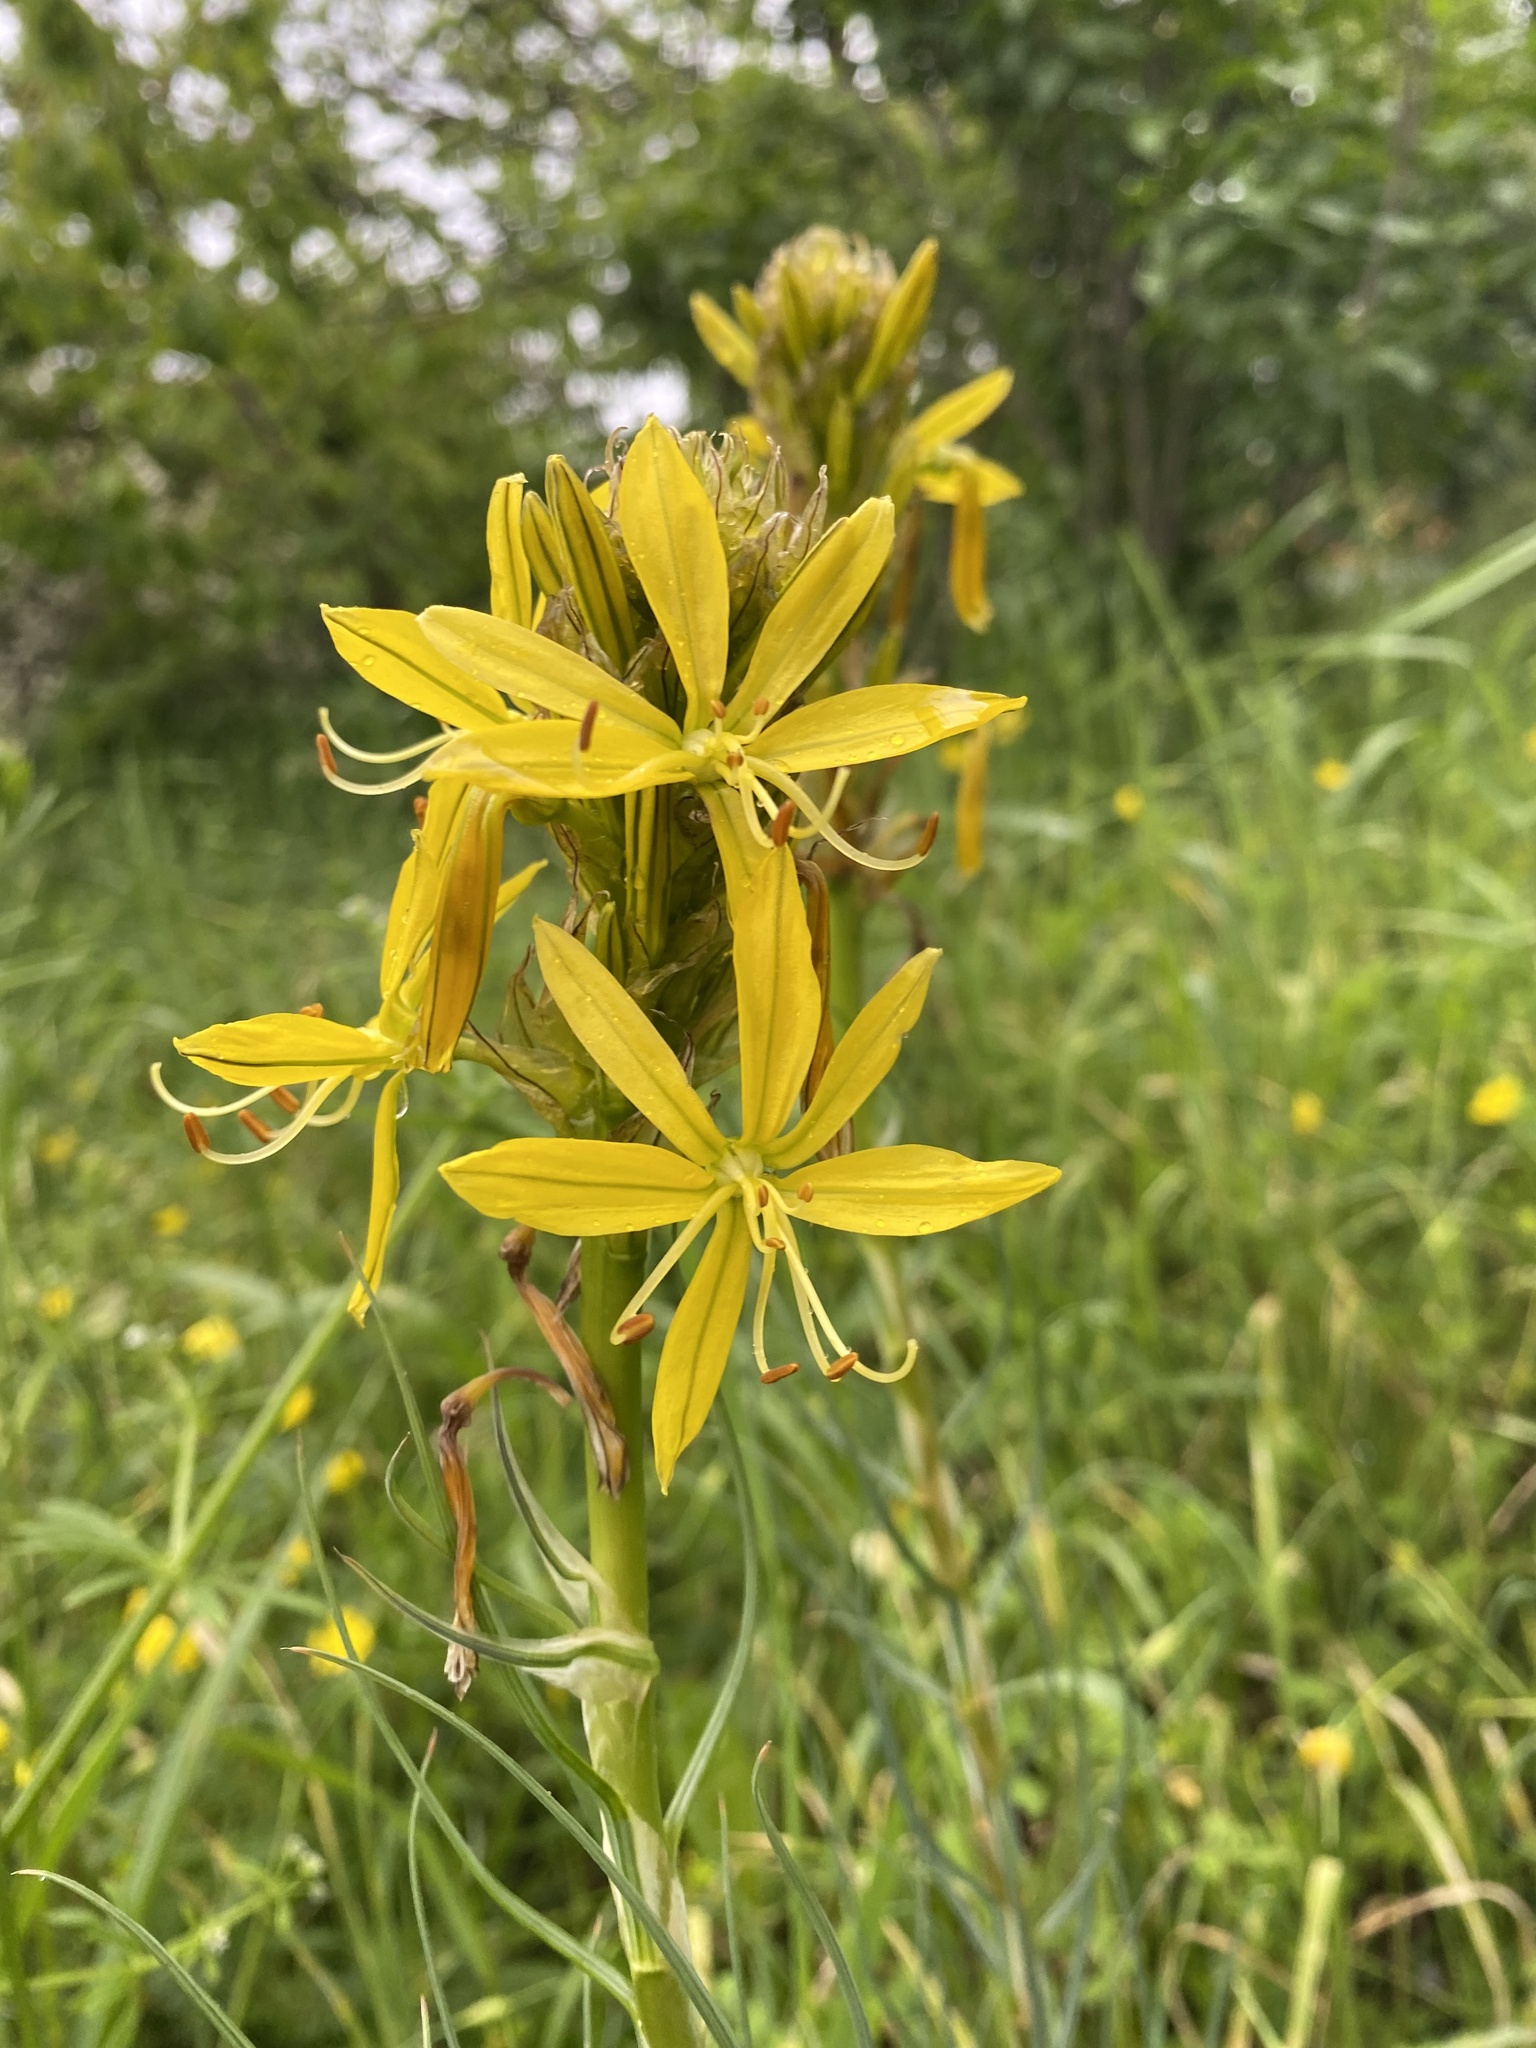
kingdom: Plantae
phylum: Tracheophyta
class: Liliopsida
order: Asparagales
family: Asphodelaceae
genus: Asphodeline
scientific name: Asphodeline lutea
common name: Yellow asphodel
